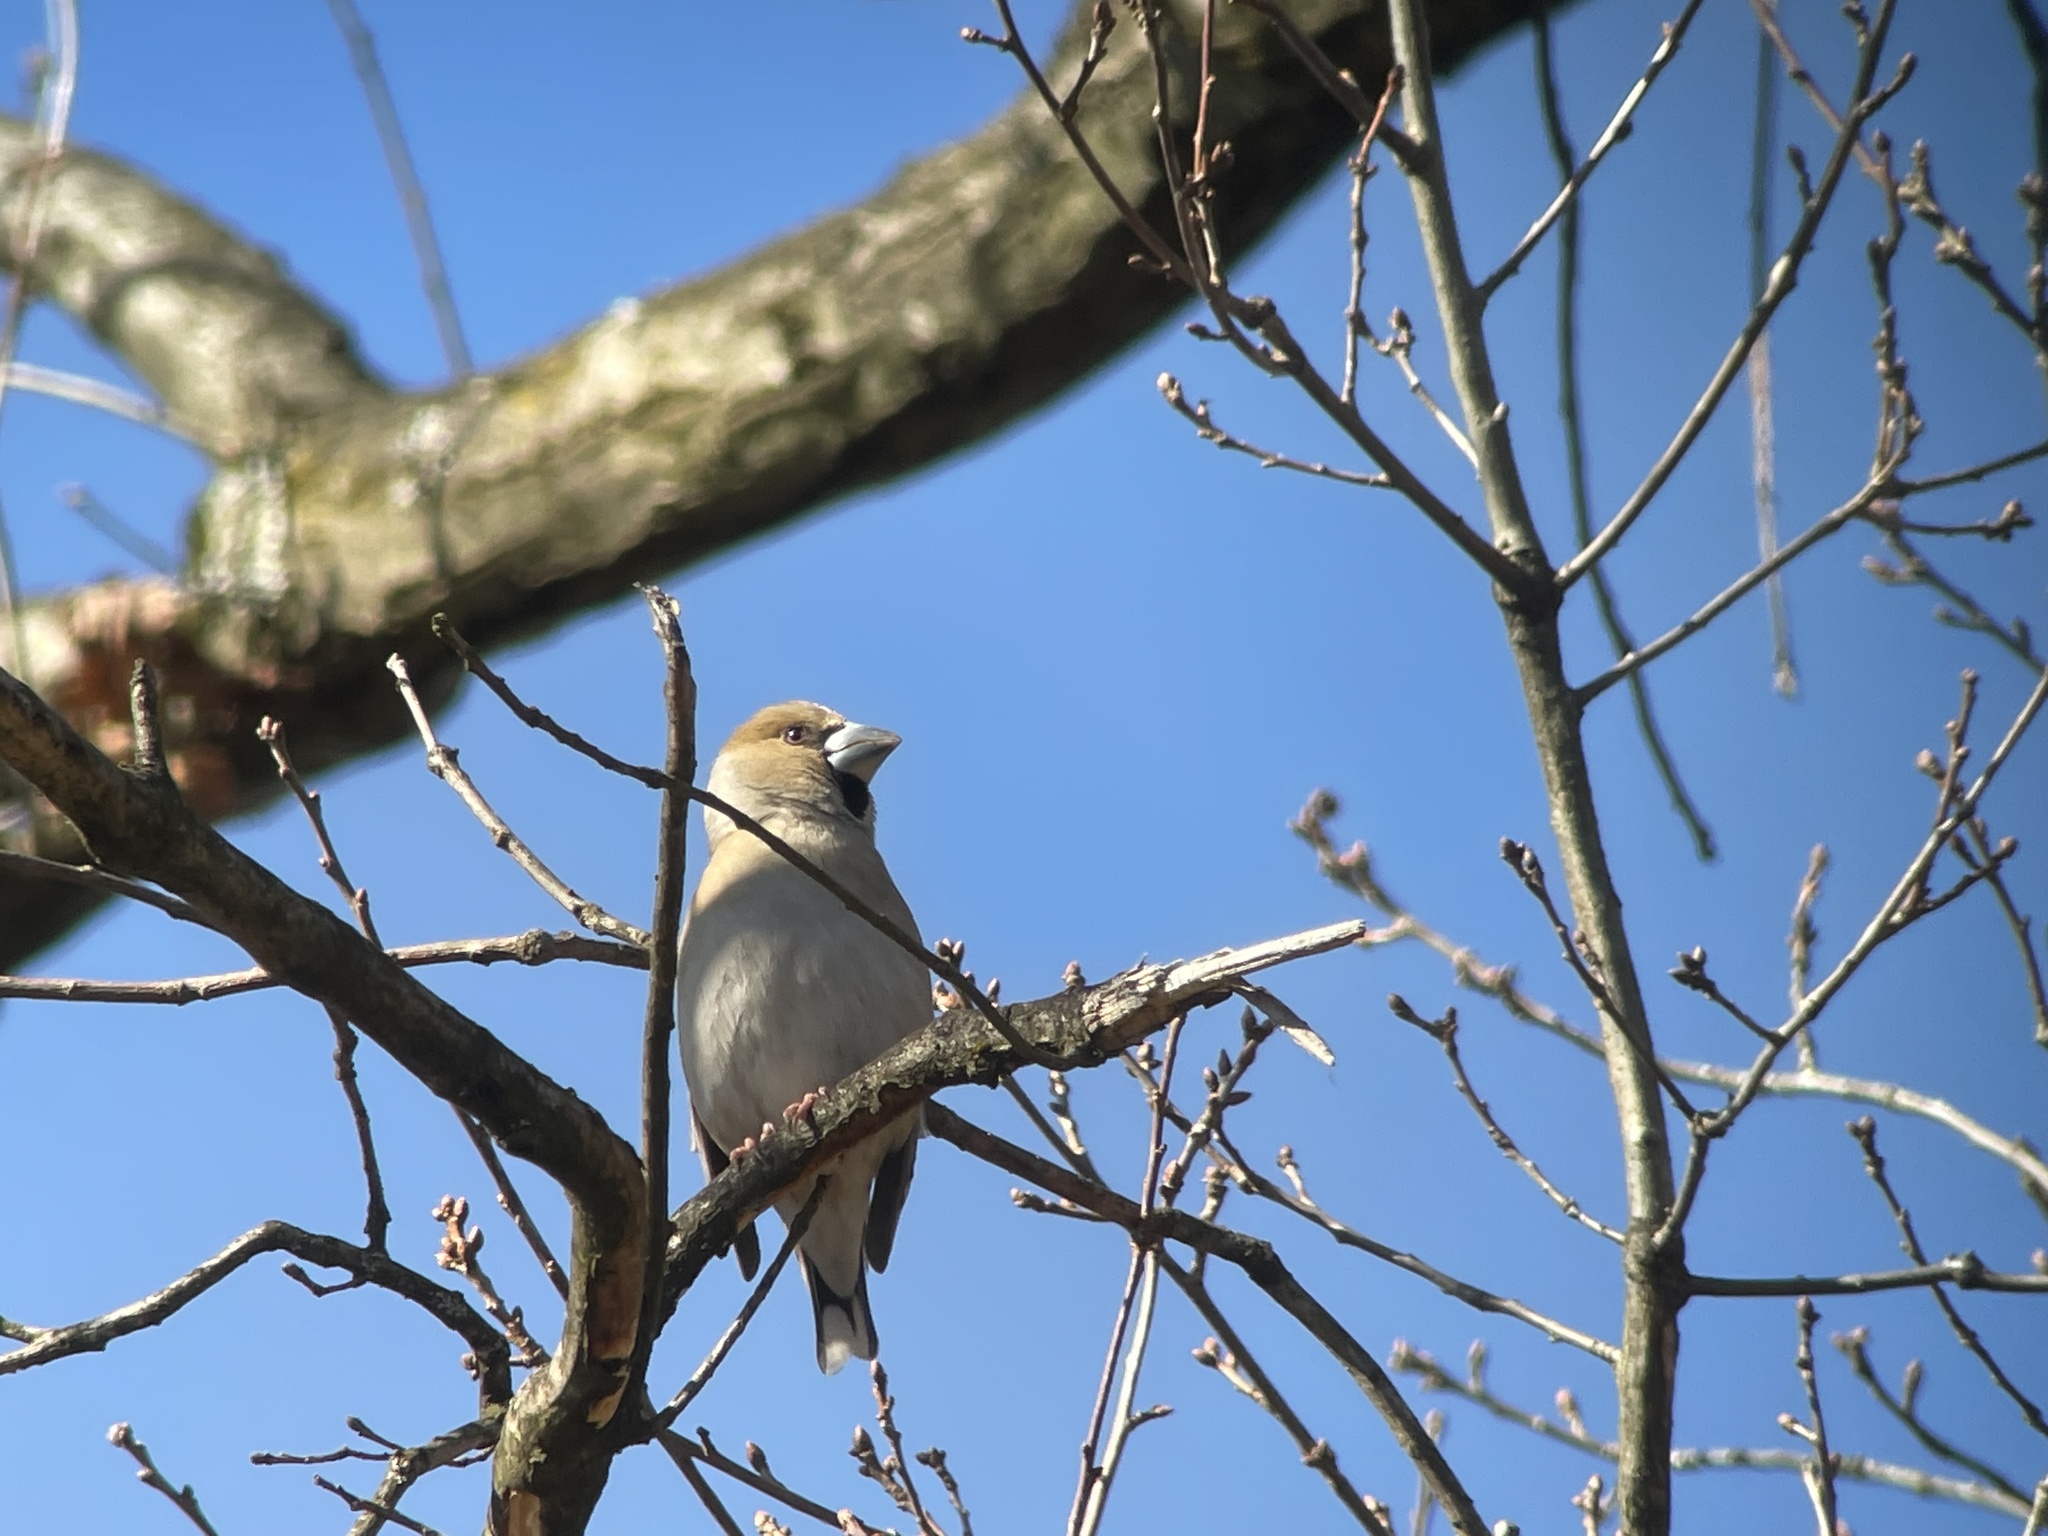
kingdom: Animalia
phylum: Chordata
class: Aves
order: Passeriformes
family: Fringillidae
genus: Coccothraustes
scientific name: Coccothraustes coccothraustes
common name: Hawfinch
